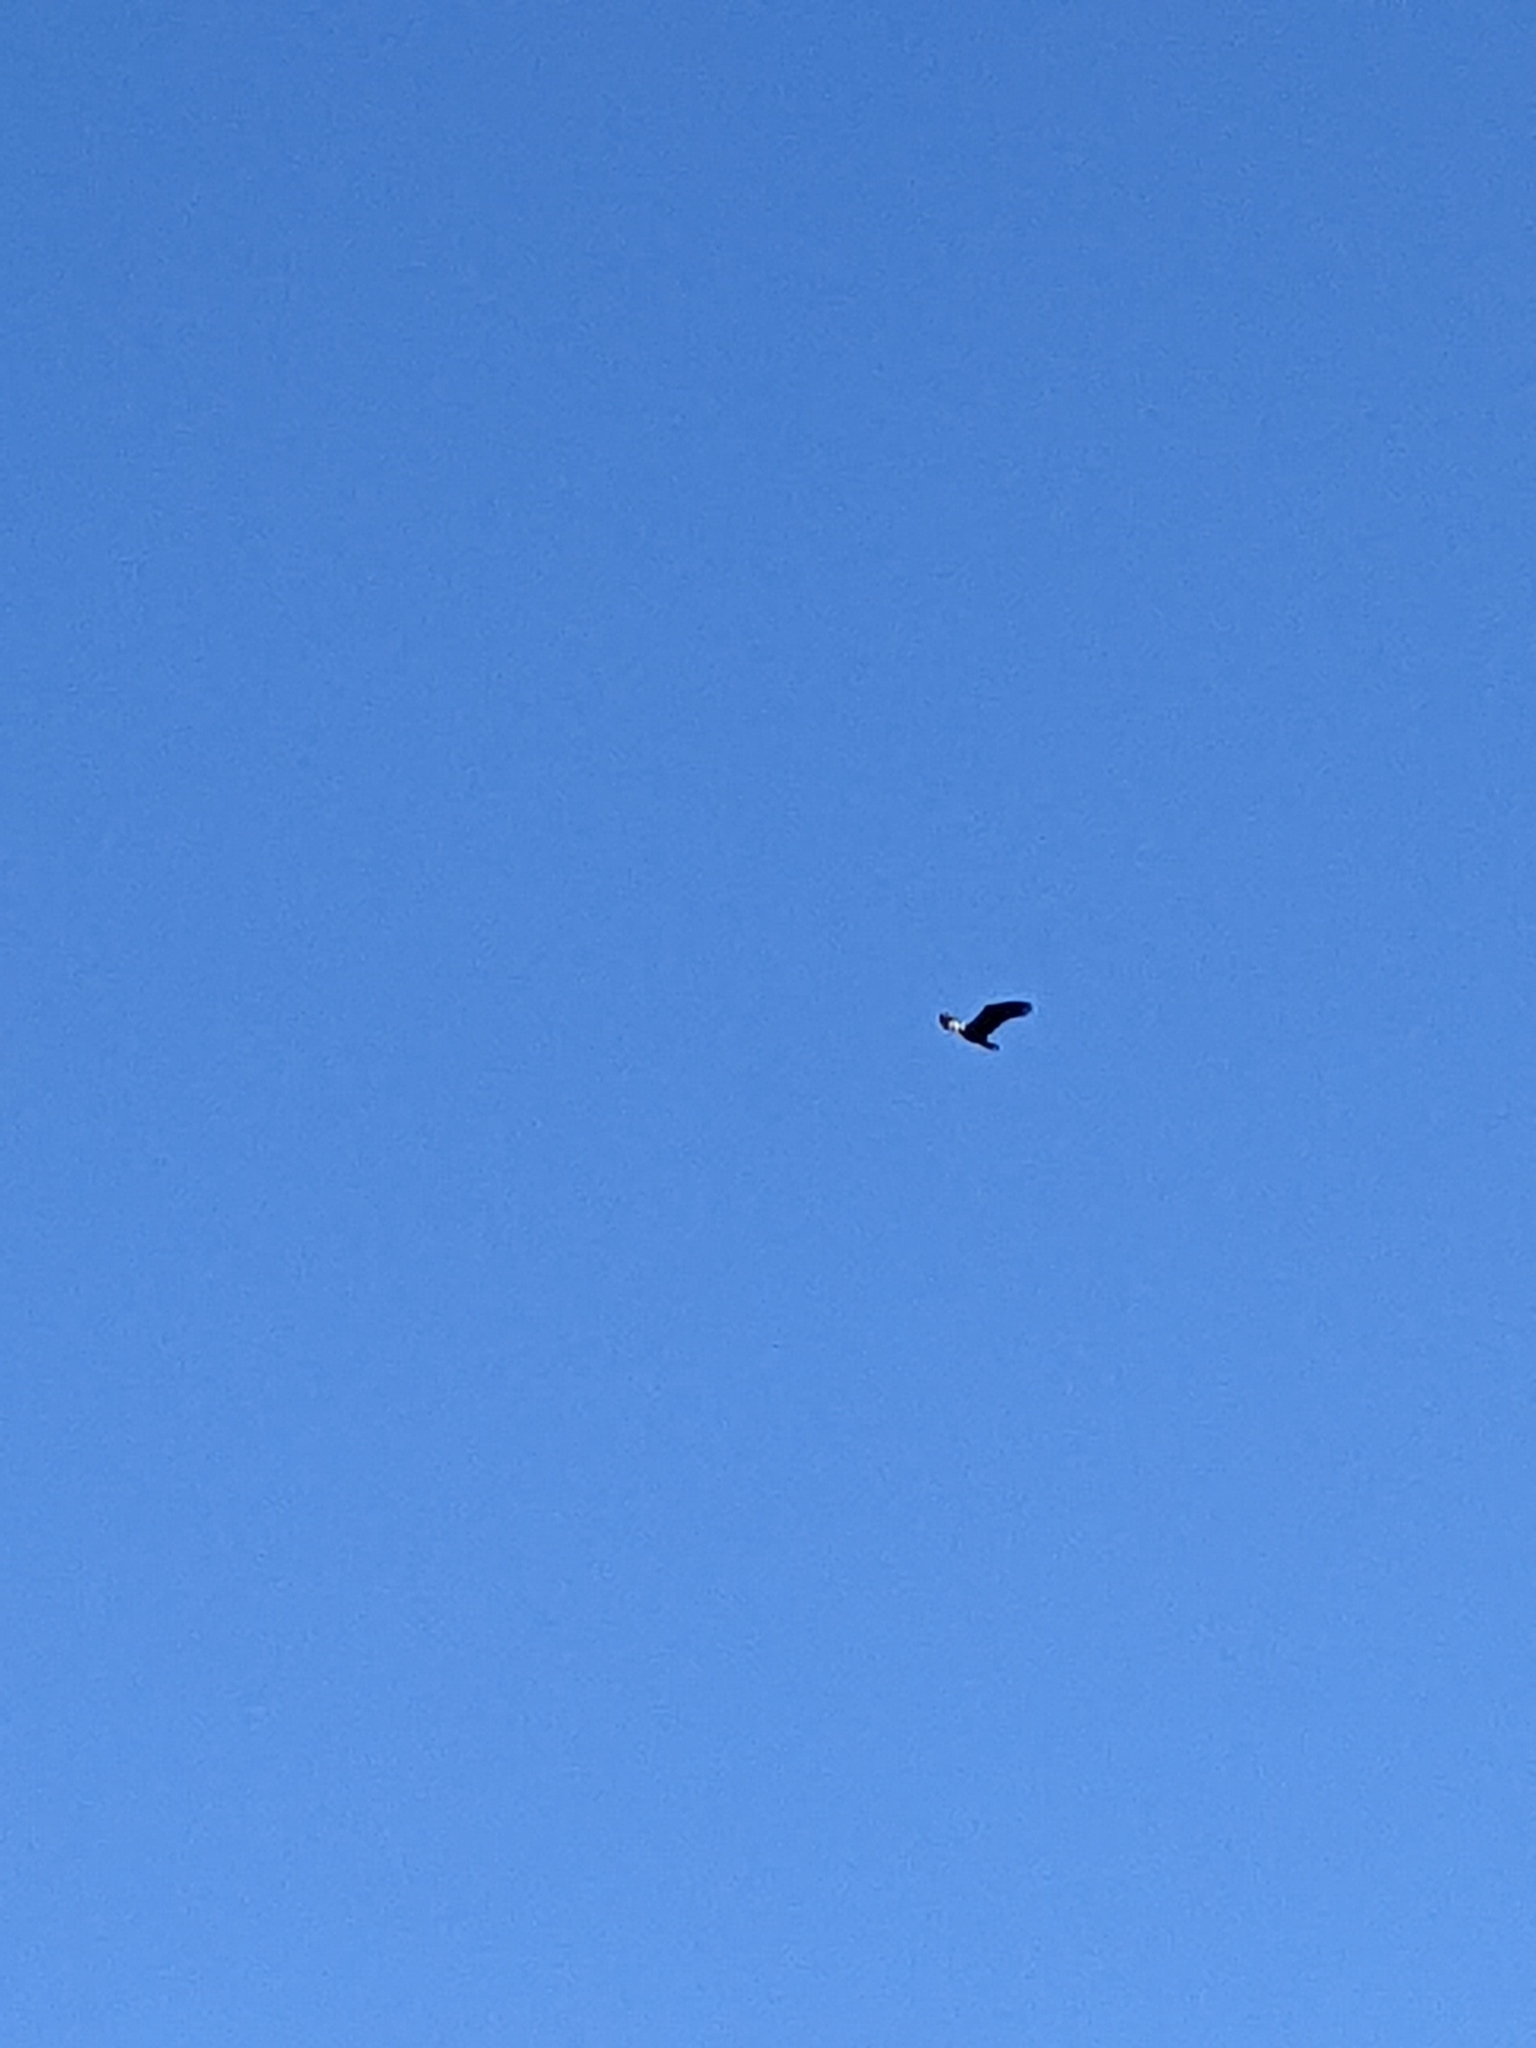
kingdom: Animalia
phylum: Chordata
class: Aves
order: Accipitriformes
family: Accipitridae
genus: Haliaeetus
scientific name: Haliaeetus leucocephalus
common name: Bald eagle
